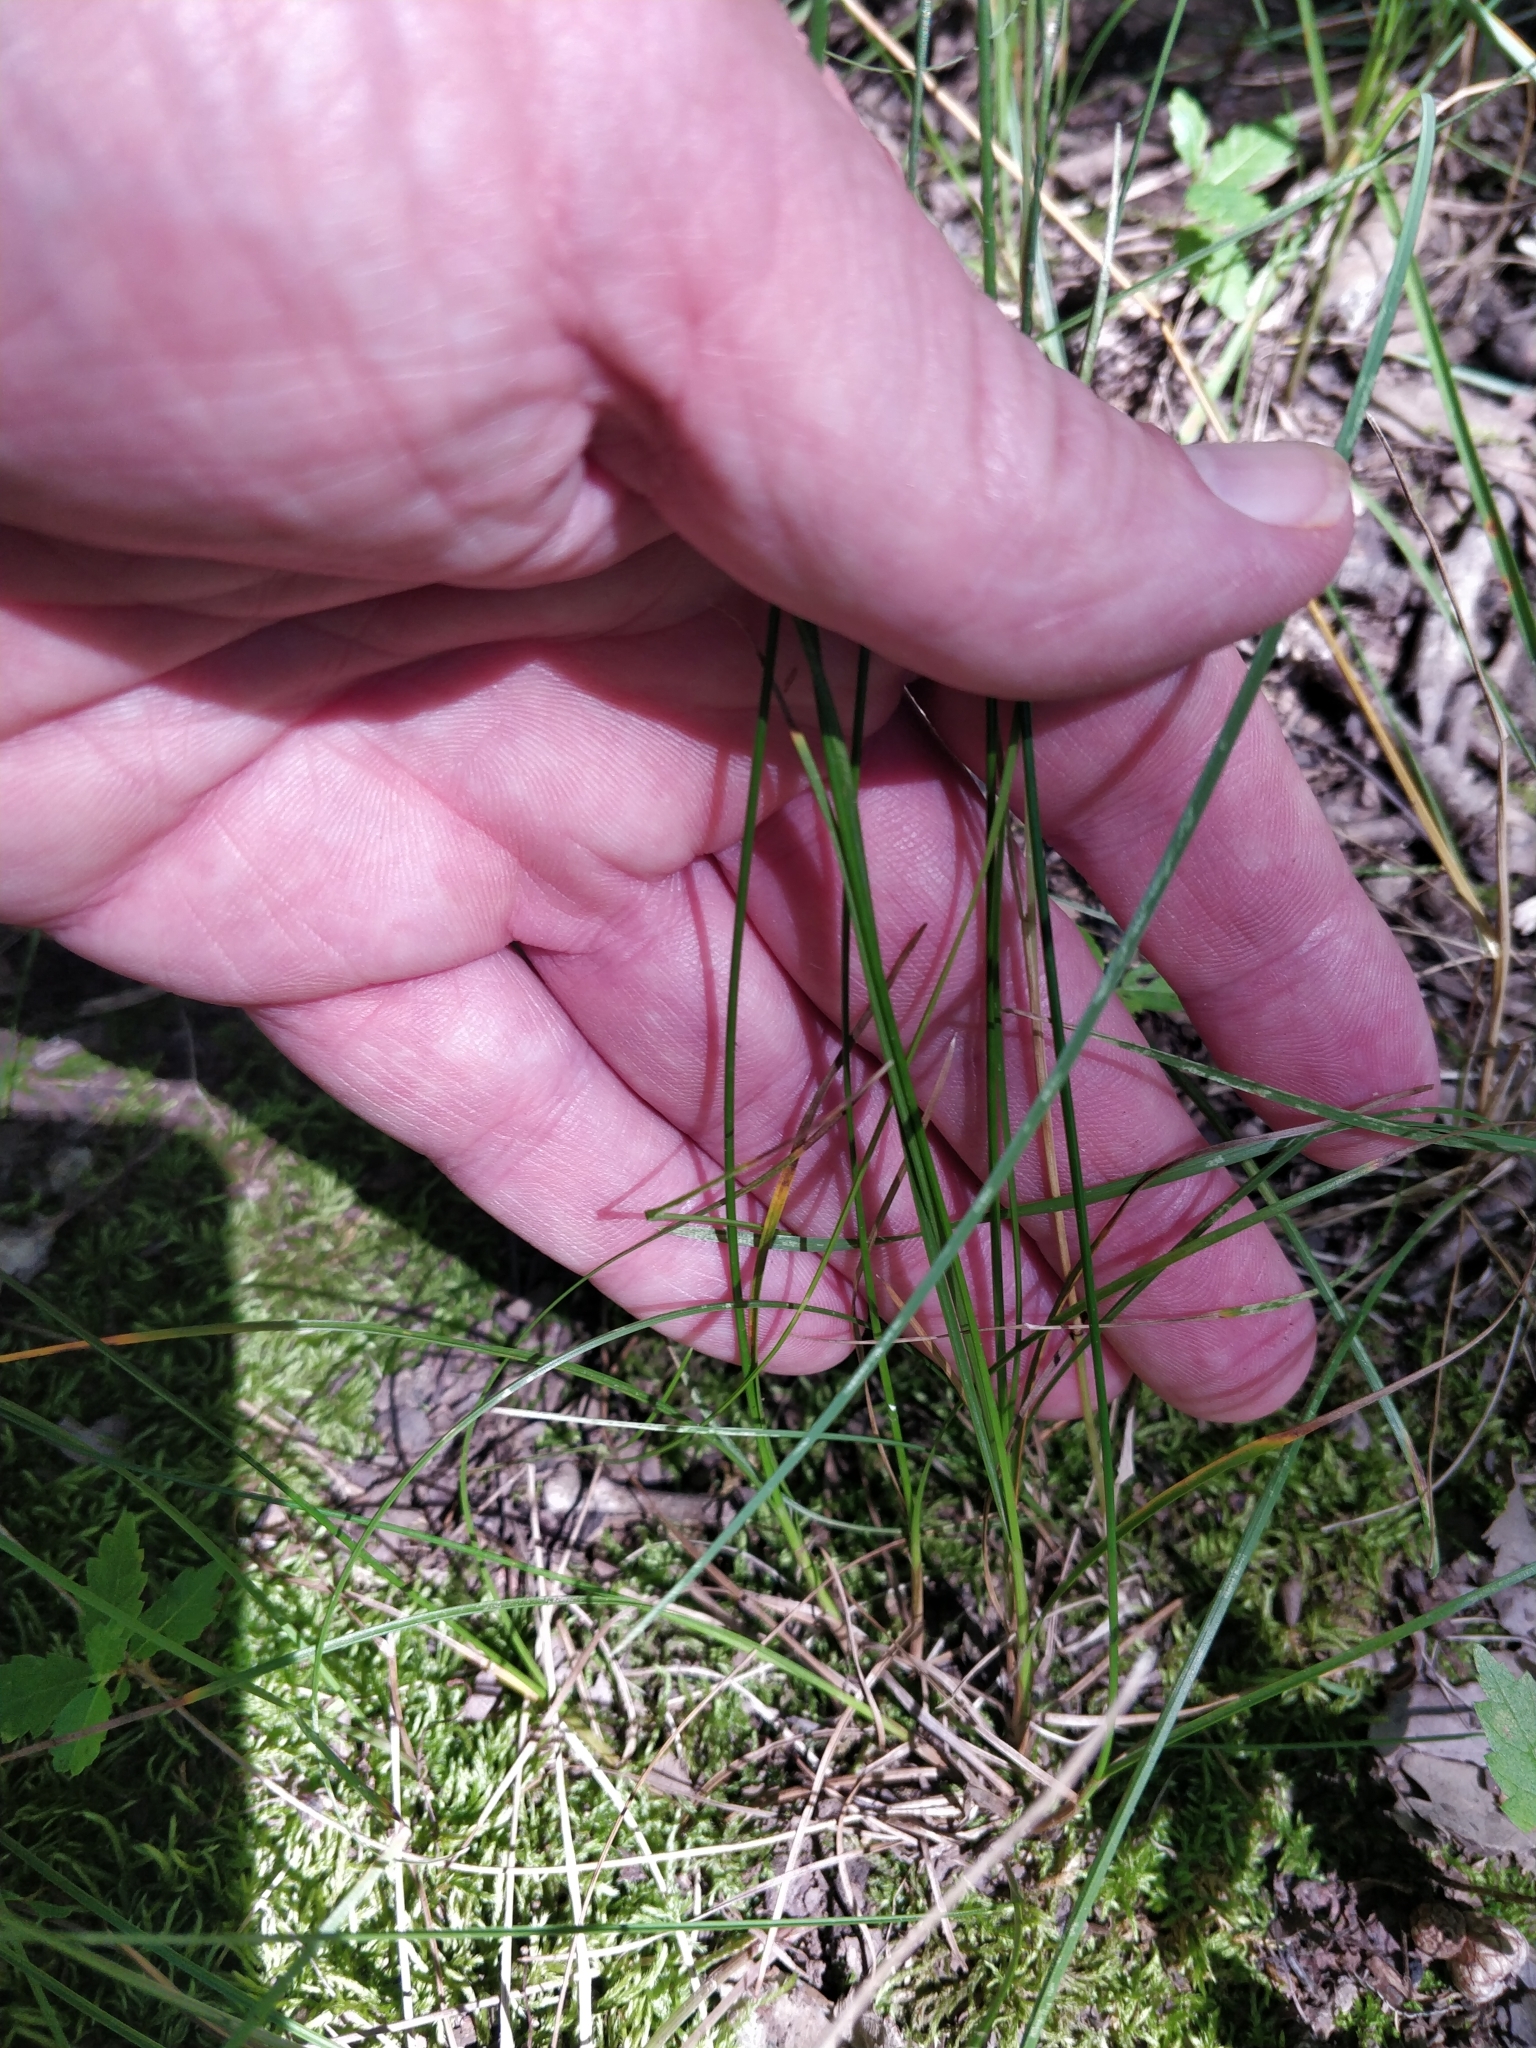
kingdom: Plantae
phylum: Tracheophyta
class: Liliopsida
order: Poales
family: Juncaceae
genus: Juncus
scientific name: Juncus tenuis
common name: Slender rush
